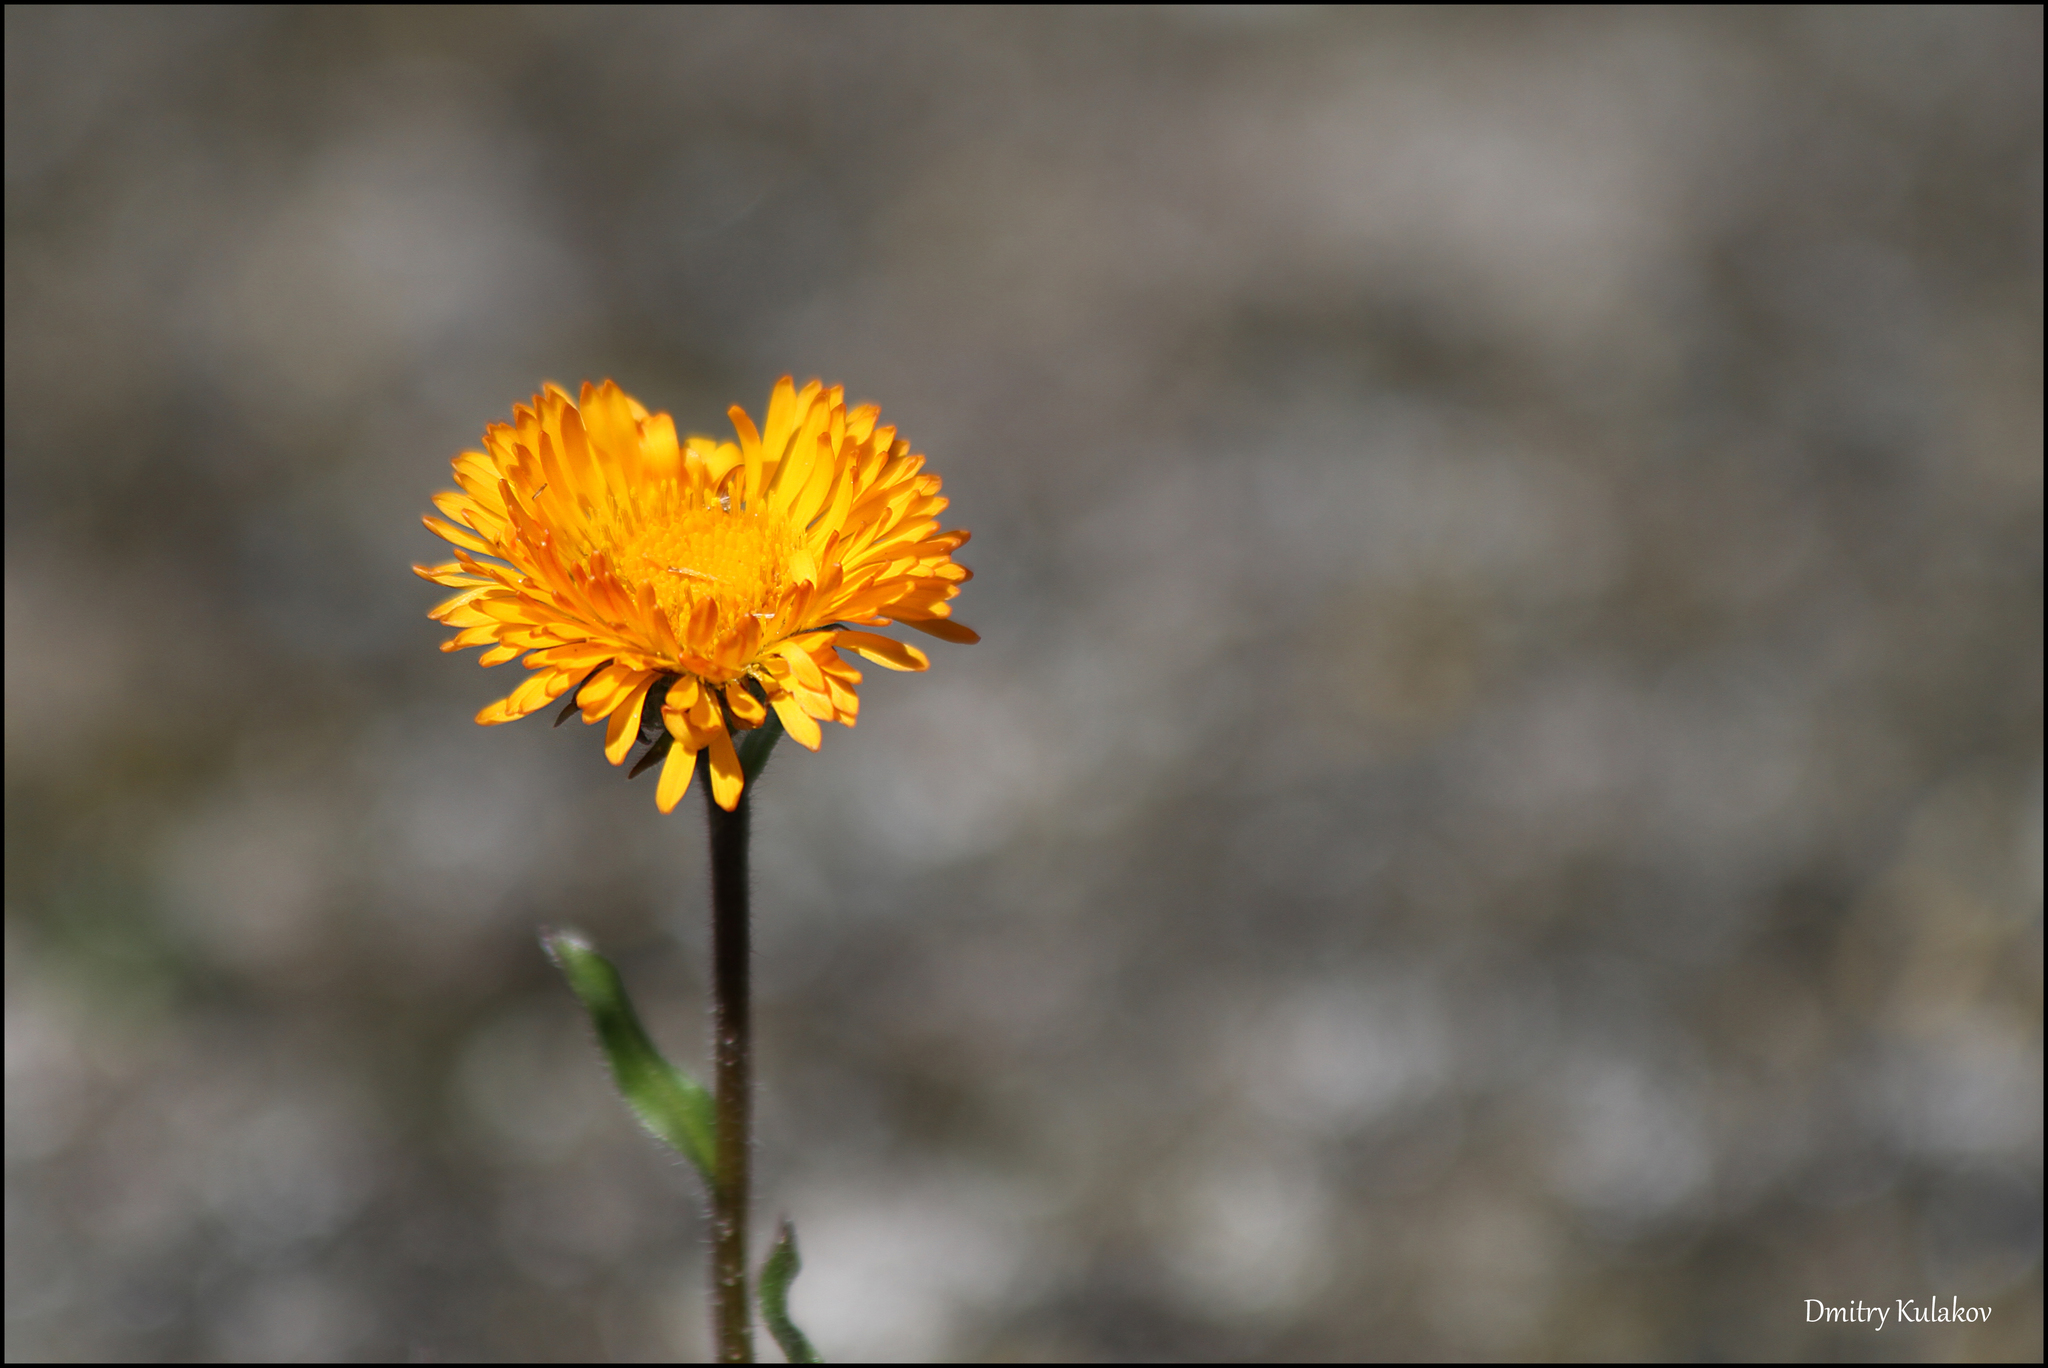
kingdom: Plantae
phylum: Tracheophyta
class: Magnoliopsida
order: Asterales
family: Asteraceae
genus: Erigeron
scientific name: Erigeron aurantiacus
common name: Orange daisy
